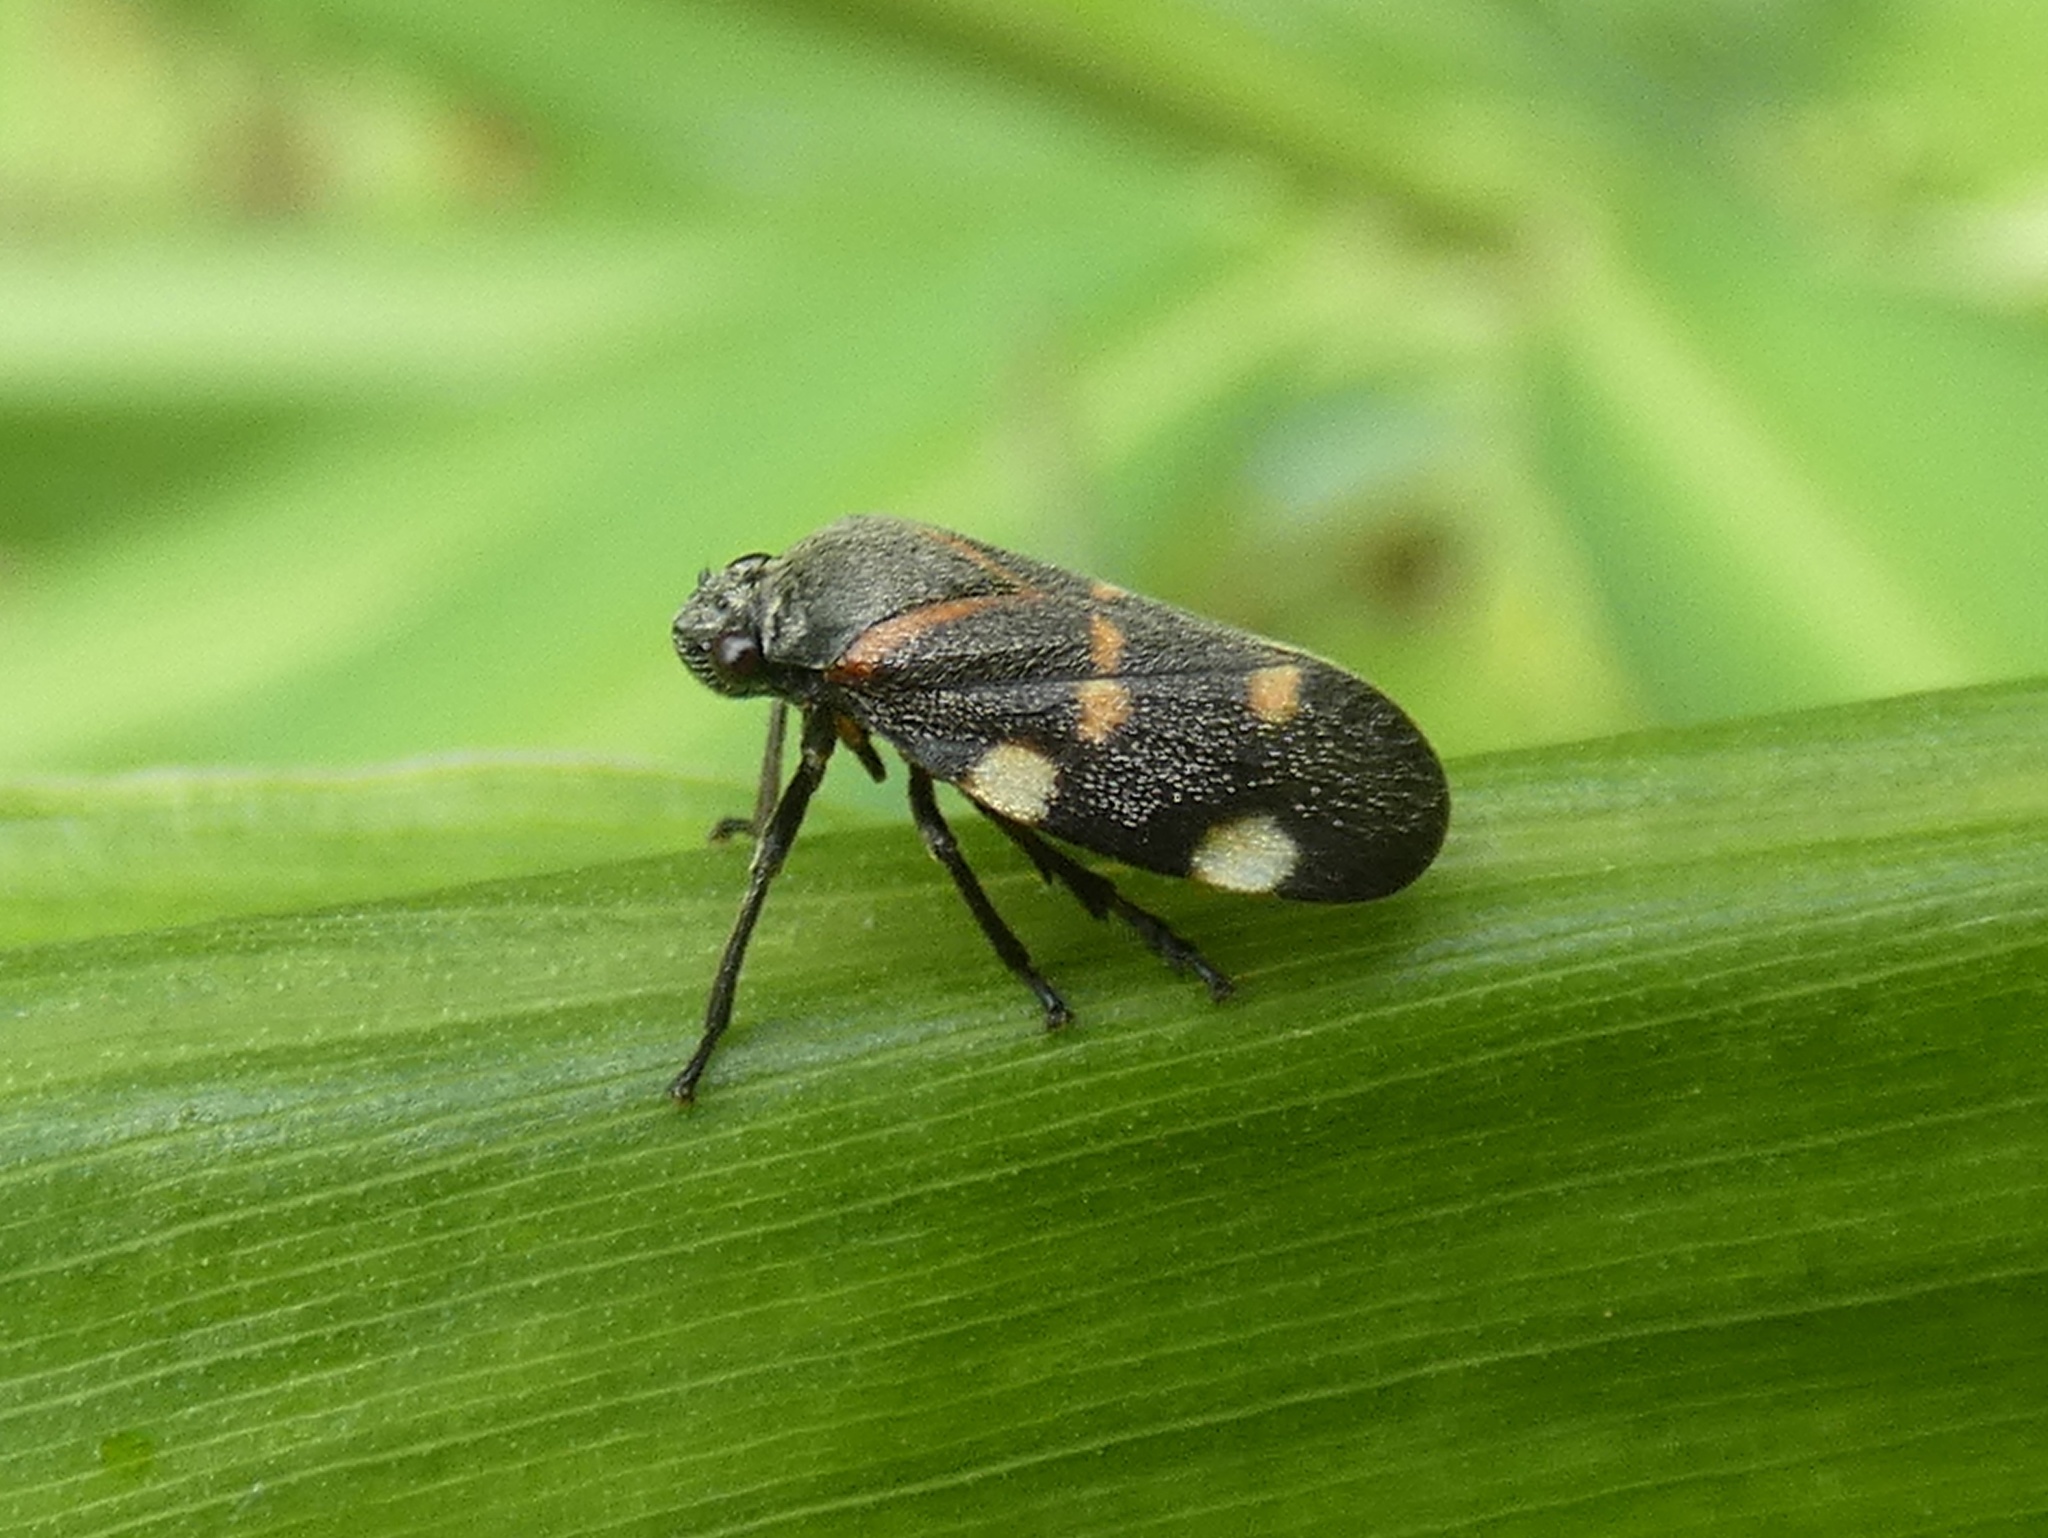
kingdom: Animalia
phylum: Arthropoda
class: Insecta
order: Hemiptera
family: Cercopidae
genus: Aeneolamia
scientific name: Aeneolamia lepidior
